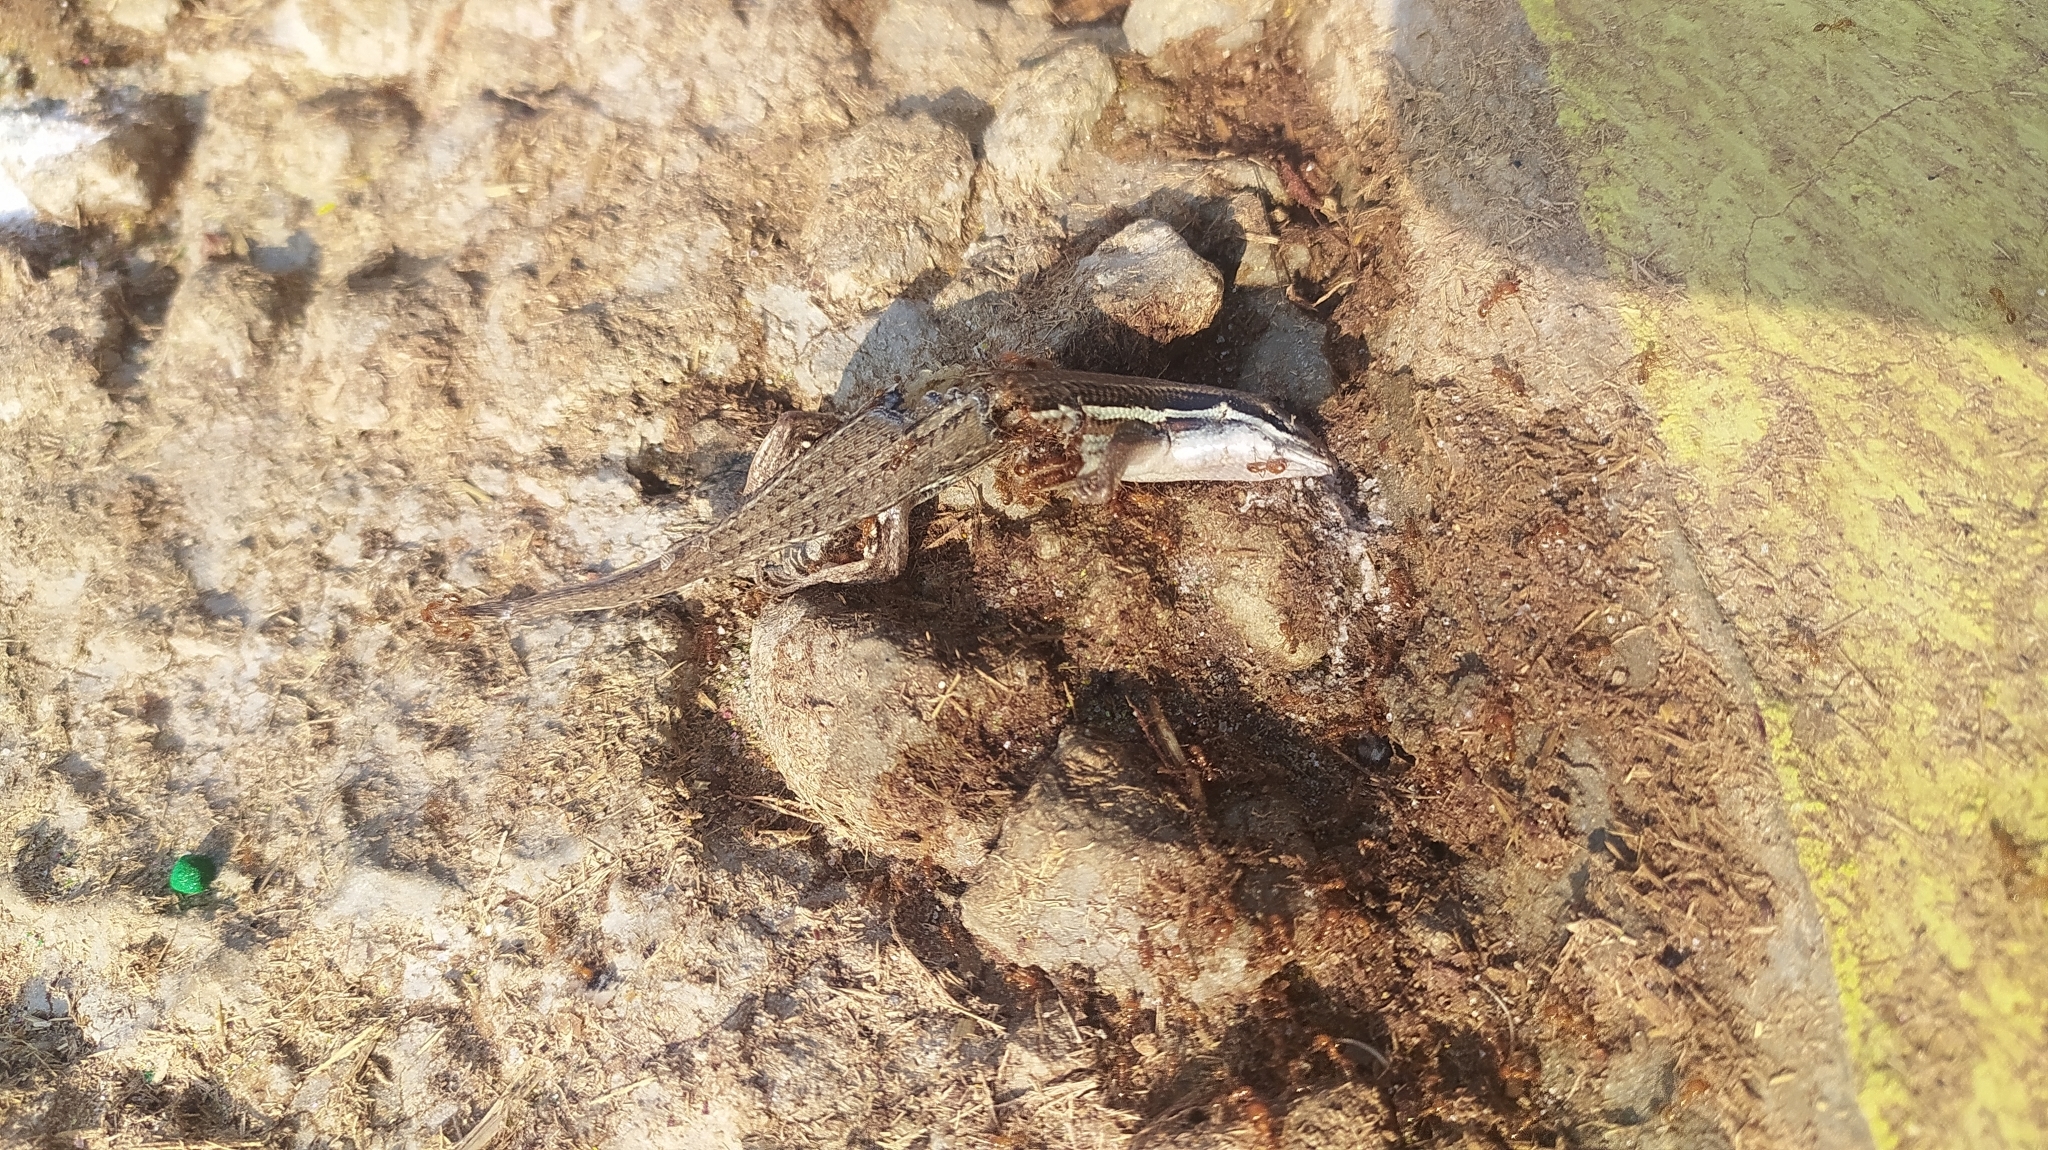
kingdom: Animalia
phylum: Chordata
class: Squamata
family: Scincidae
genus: Eutropis
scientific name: Eutropis bibronii
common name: Bibron's skink
